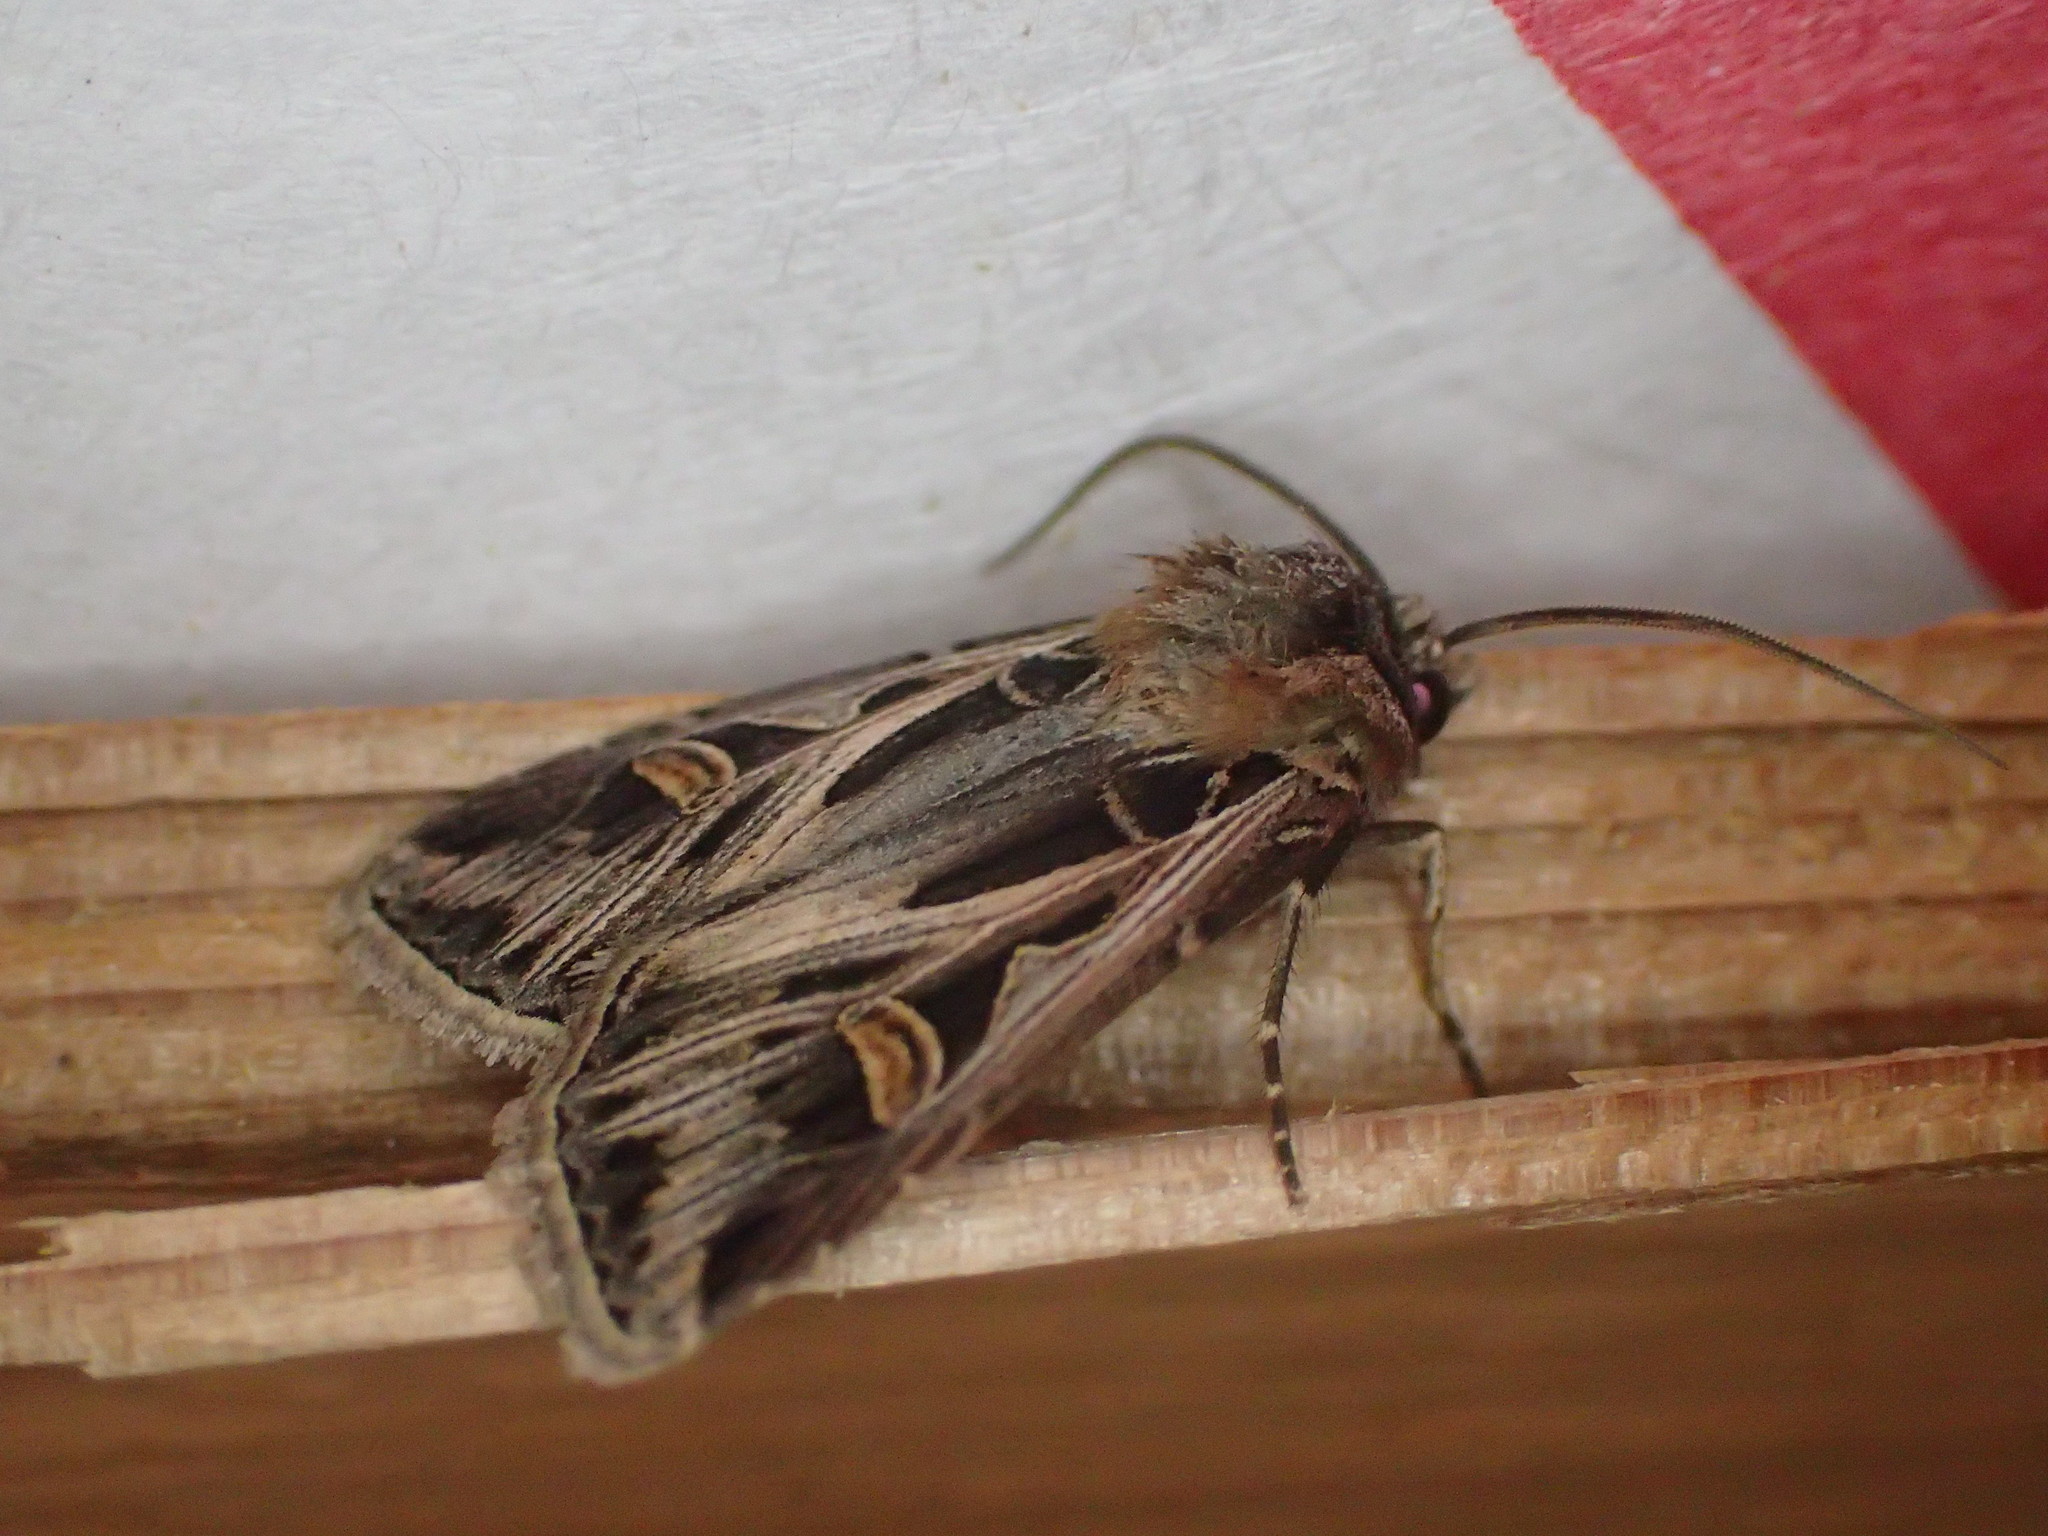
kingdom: Animalia
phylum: Arthropoda
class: Insecta
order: Lepidoptera
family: Noctuidae
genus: Feltia
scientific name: Feltia jaculifera
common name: Dingy cutworm moth
